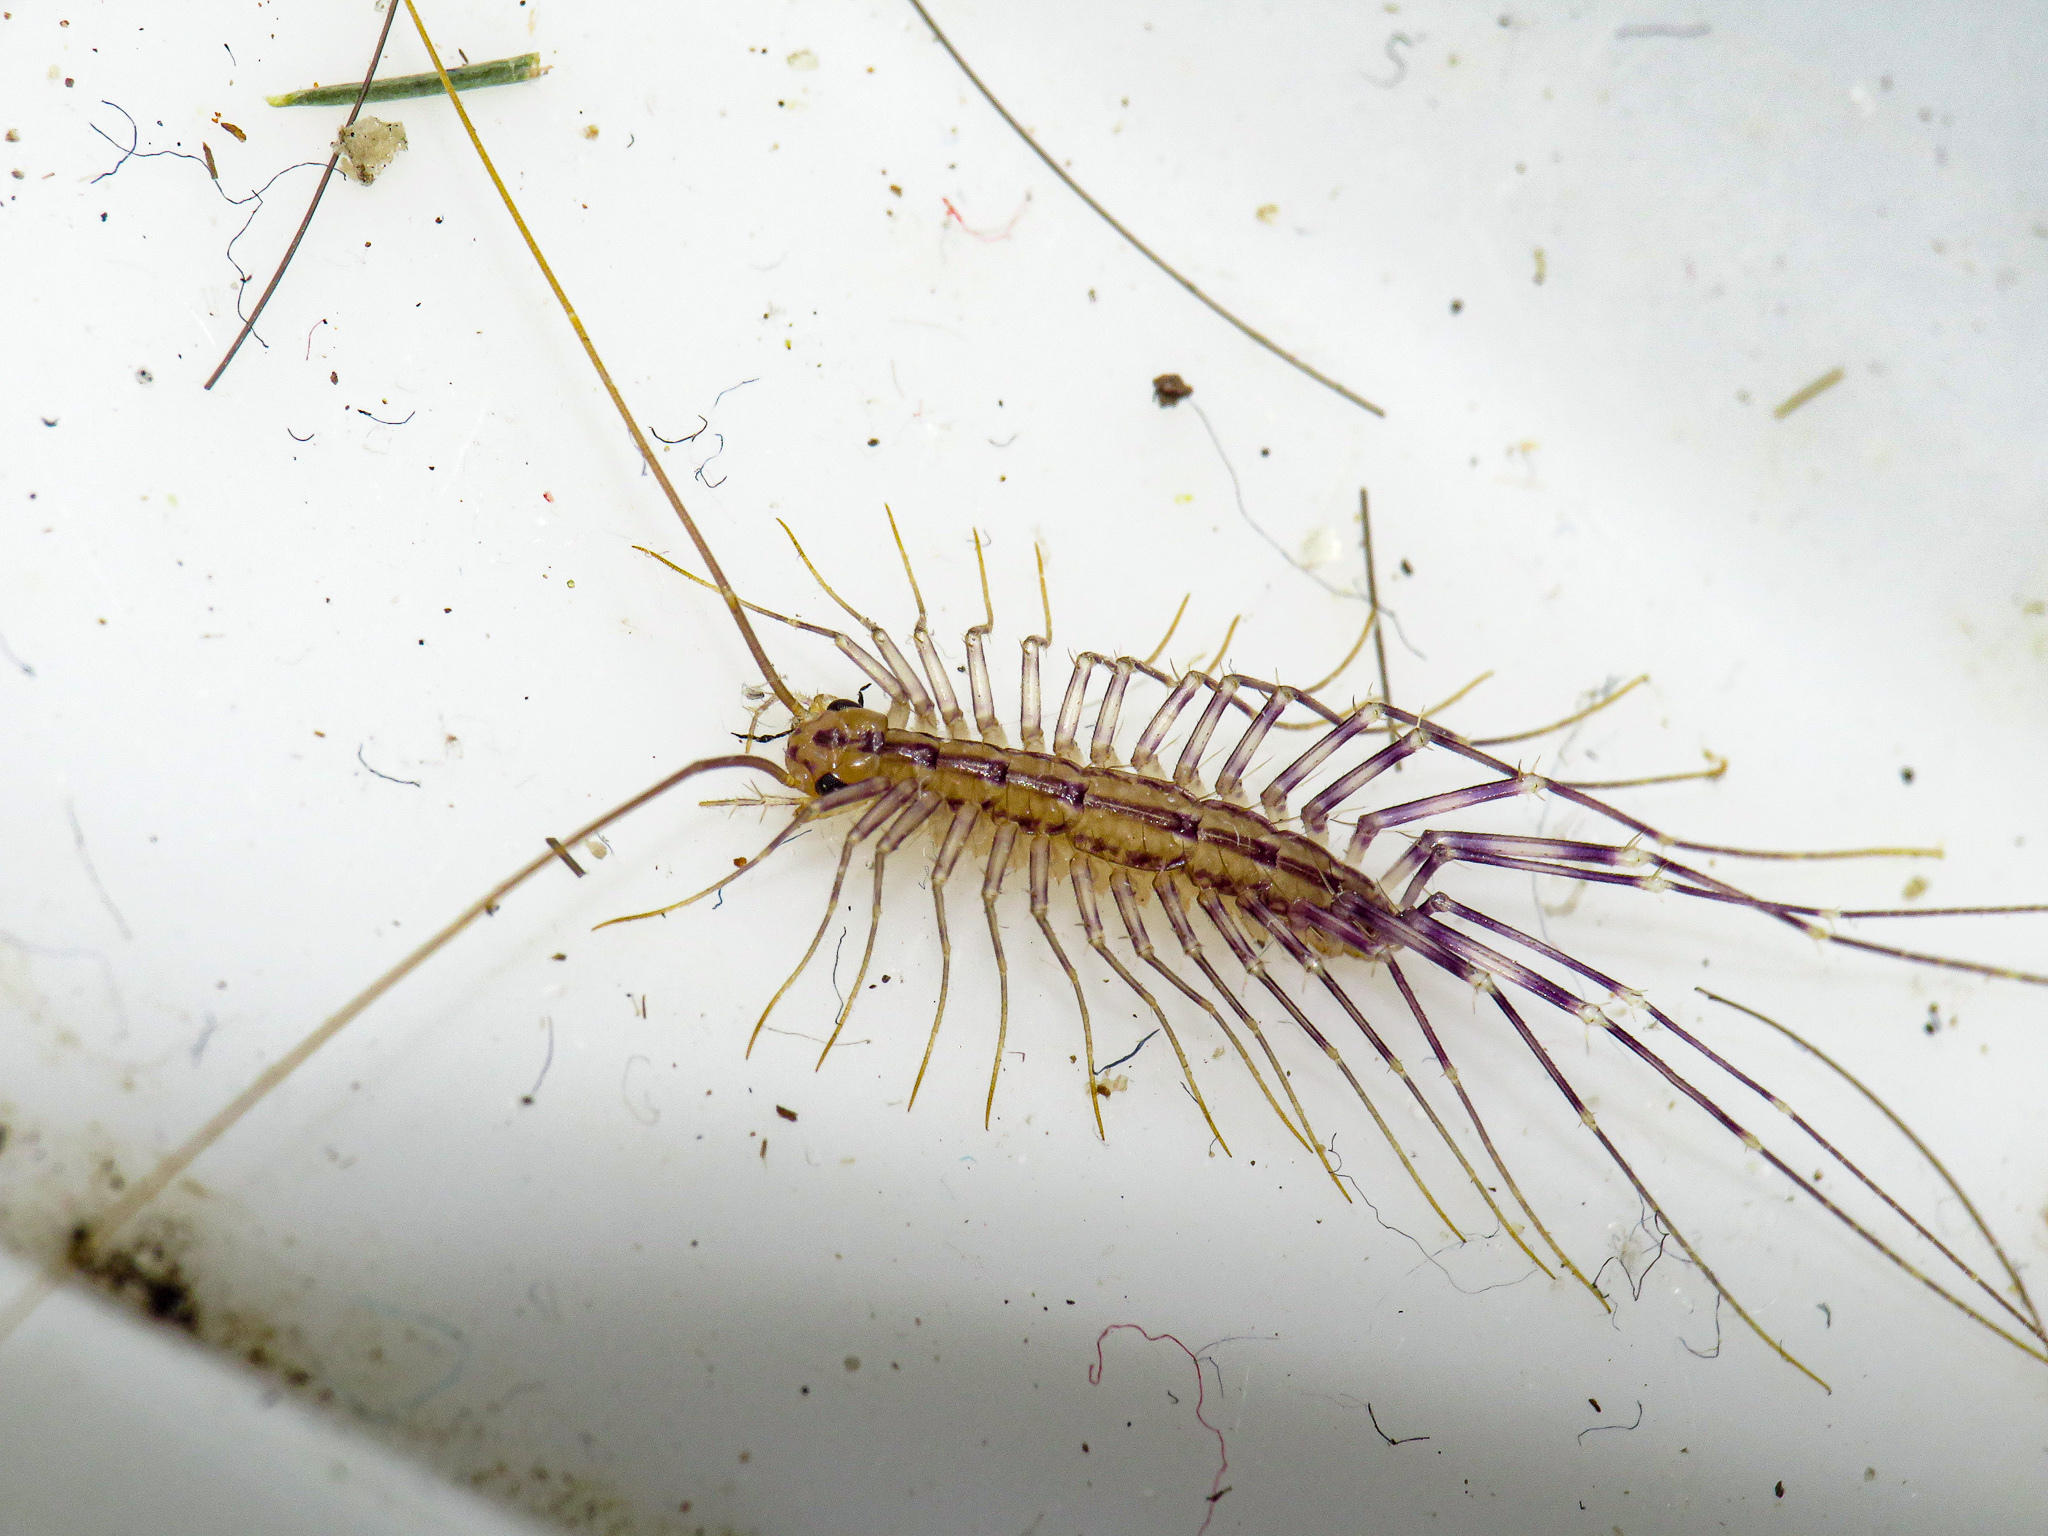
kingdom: Animalia
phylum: Arthropoda
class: Chilopoda
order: Scutigeromorpha
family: Scutigeridae
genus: Scutigera
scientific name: Scutigera coleoptrata
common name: House centipede
